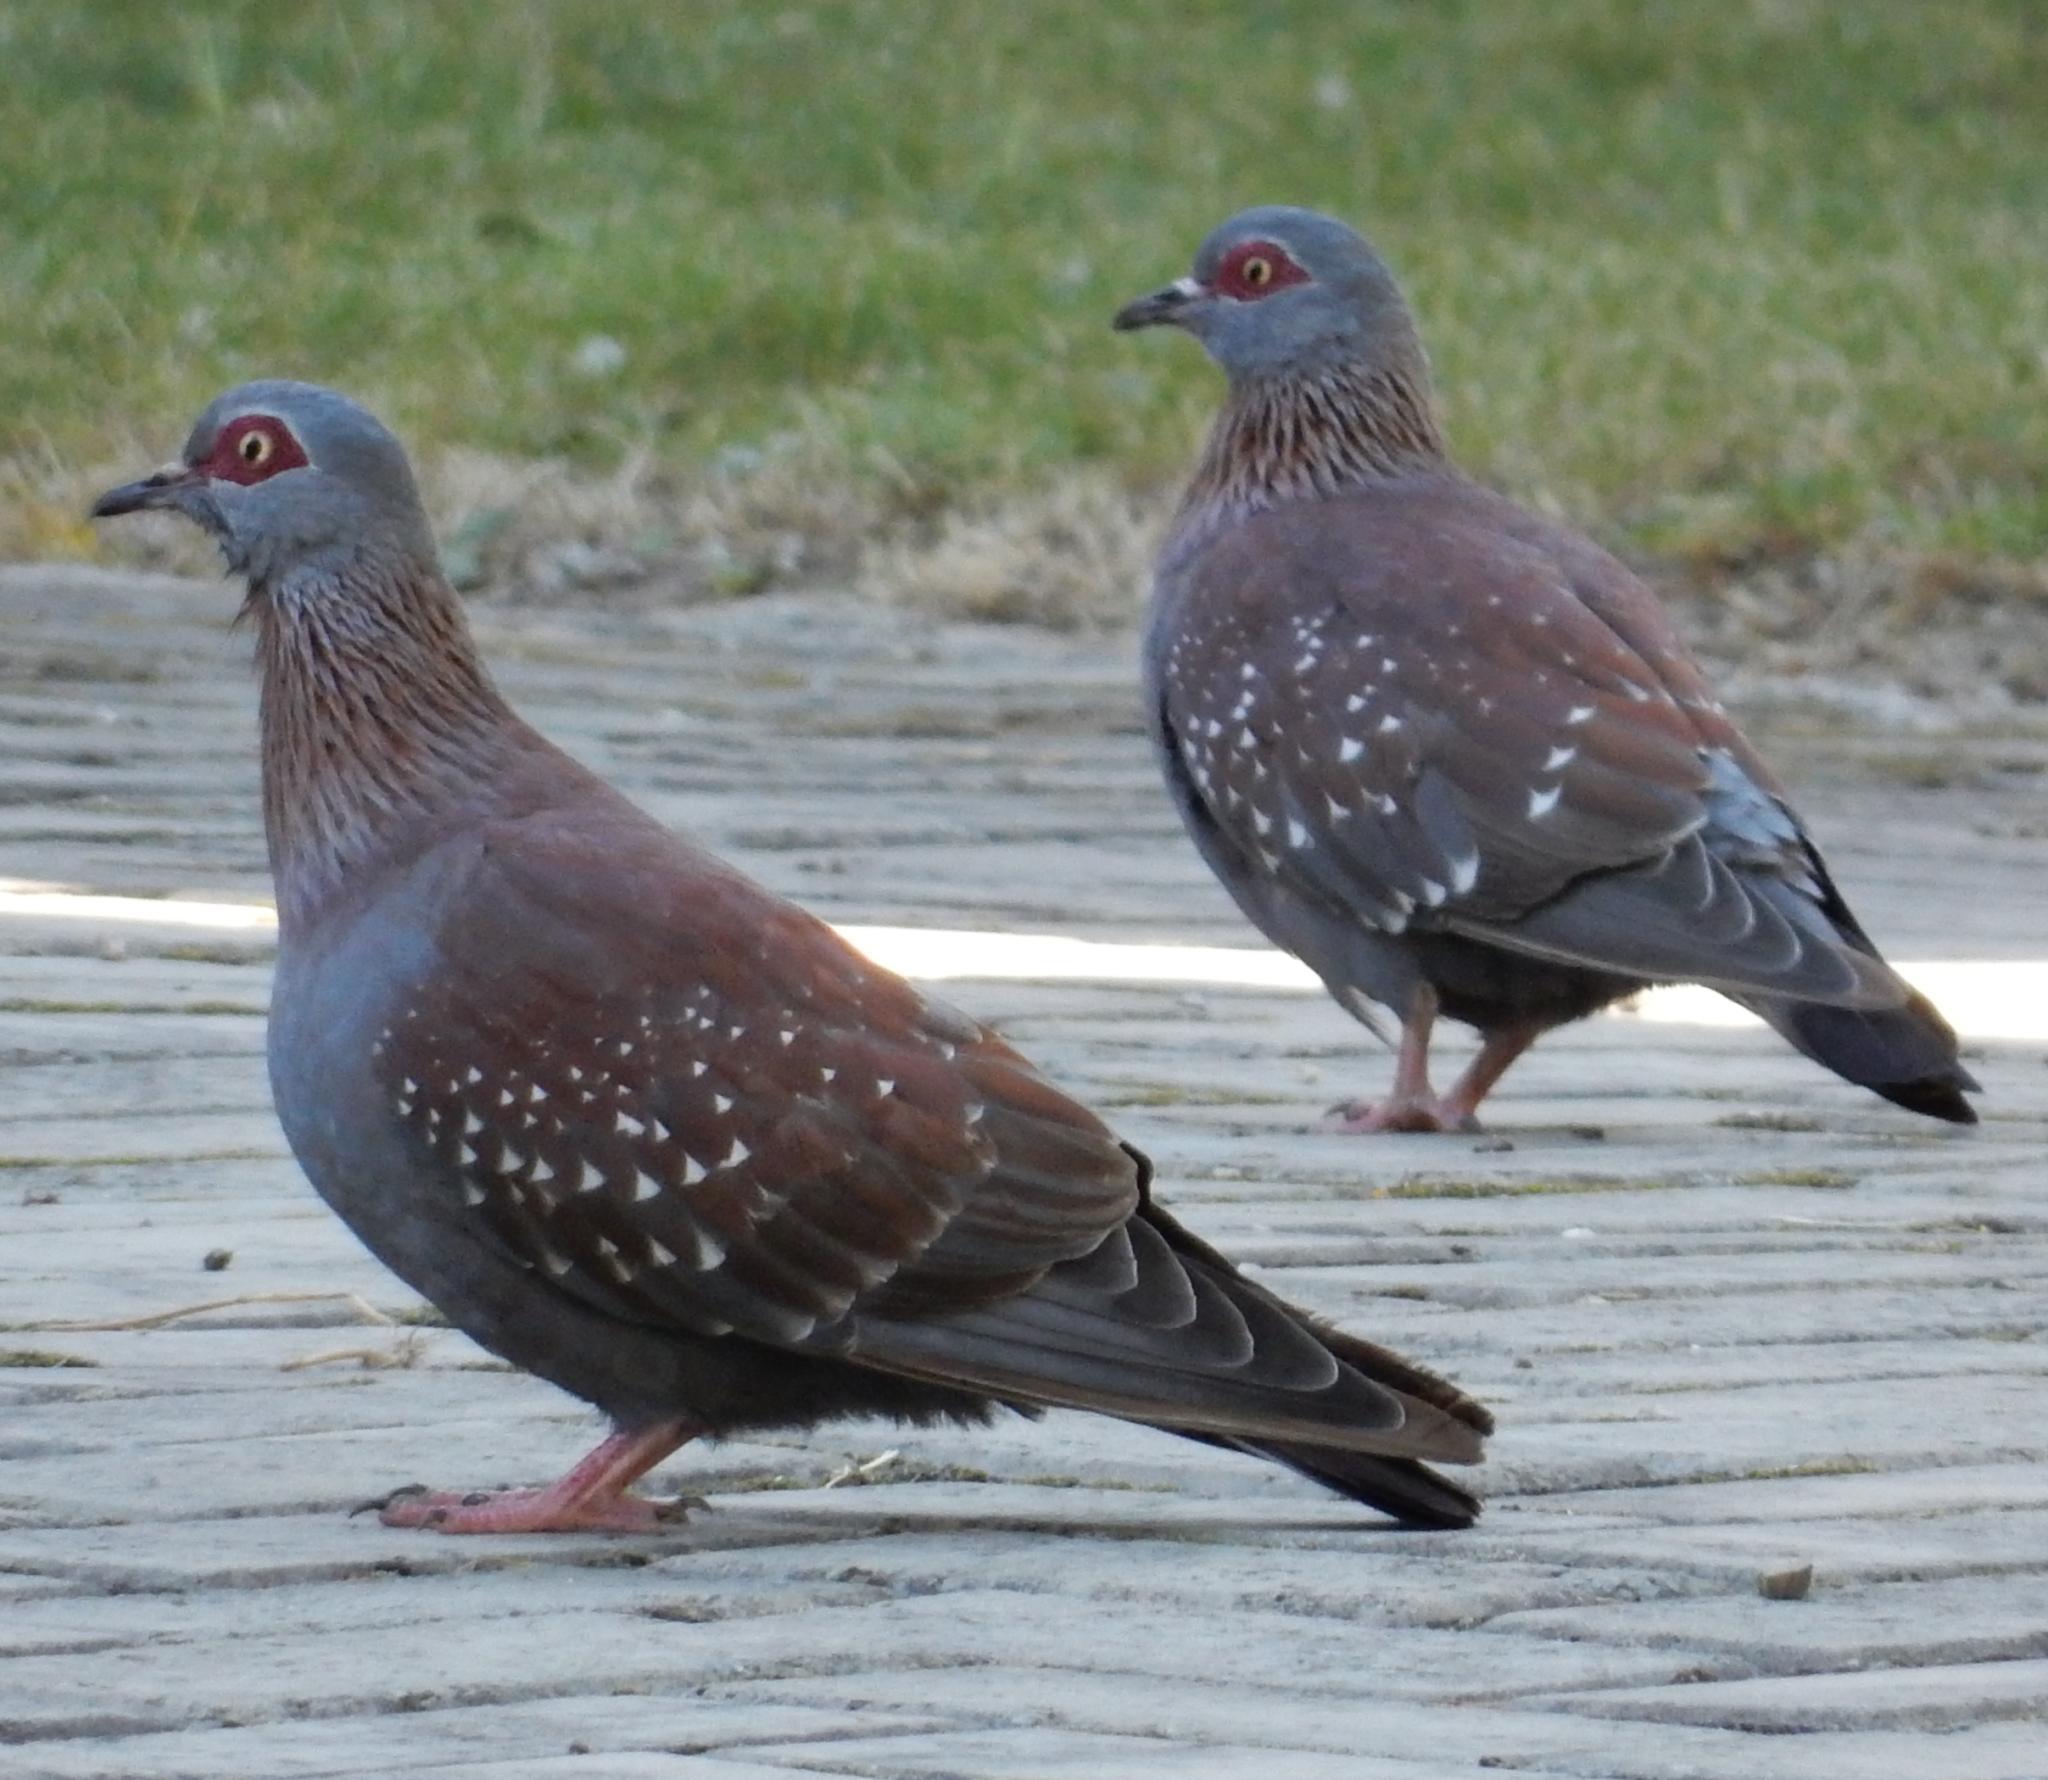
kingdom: Animalia
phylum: Chordata
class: Aves
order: Columbiformes
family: Columbidae
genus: Columba
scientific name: Columba guinea
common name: Speckled pigeon
